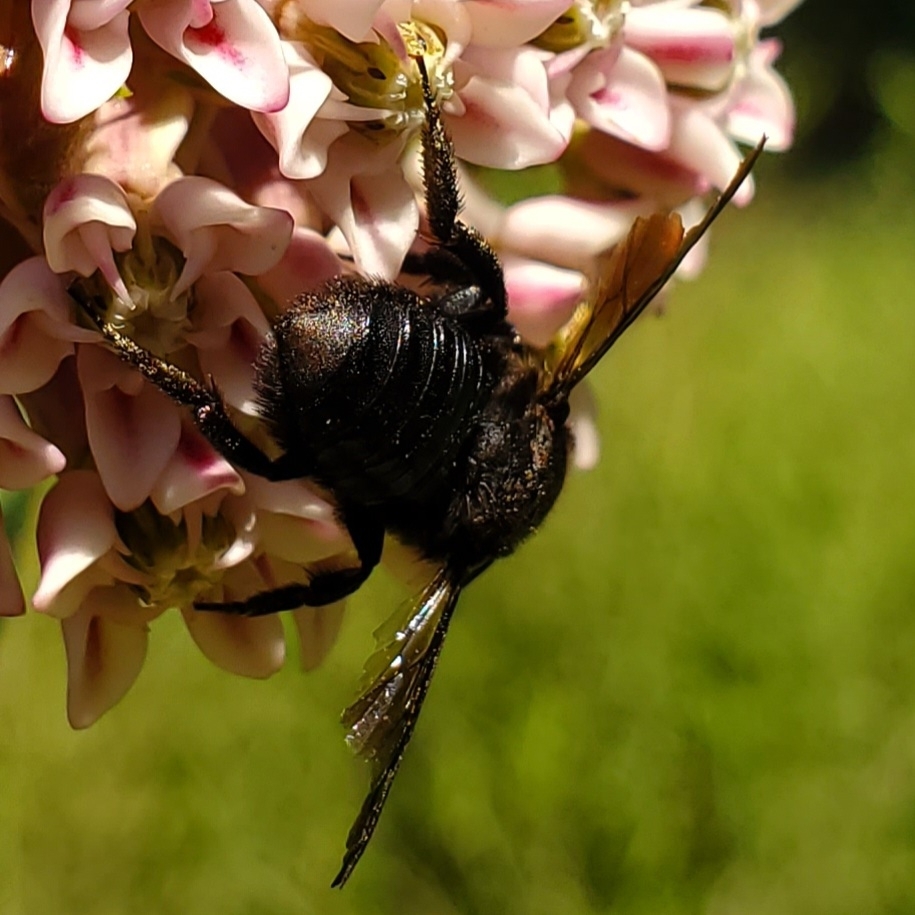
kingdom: Animalia
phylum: Arthropoda
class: Insecta
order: Hymenoptera
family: Megachilidae
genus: Megachile
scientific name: Megachile xylocopoides
